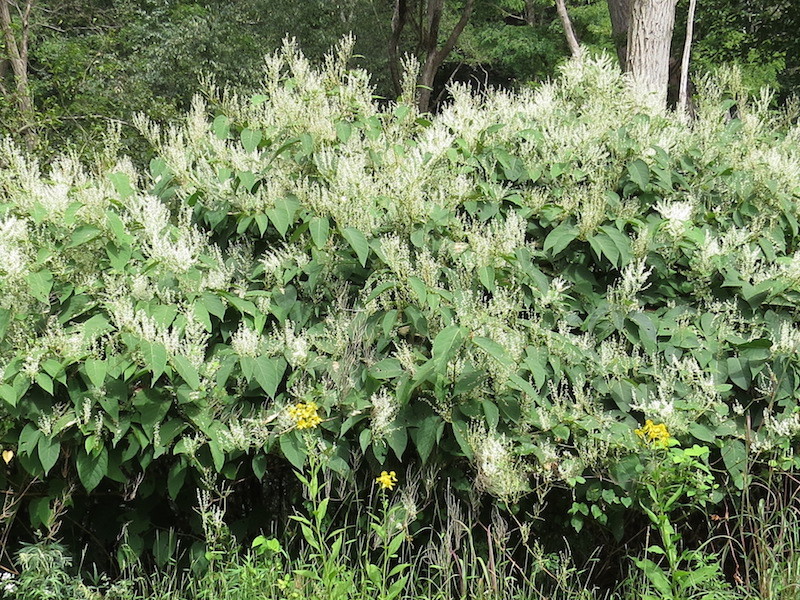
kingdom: Plantae
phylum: Tracheophyta
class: Magnoliopsida
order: Caryophyllales
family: Polygonaceae
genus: Reynoutria
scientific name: Reynoutria japonica
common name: Japanese knotweed
